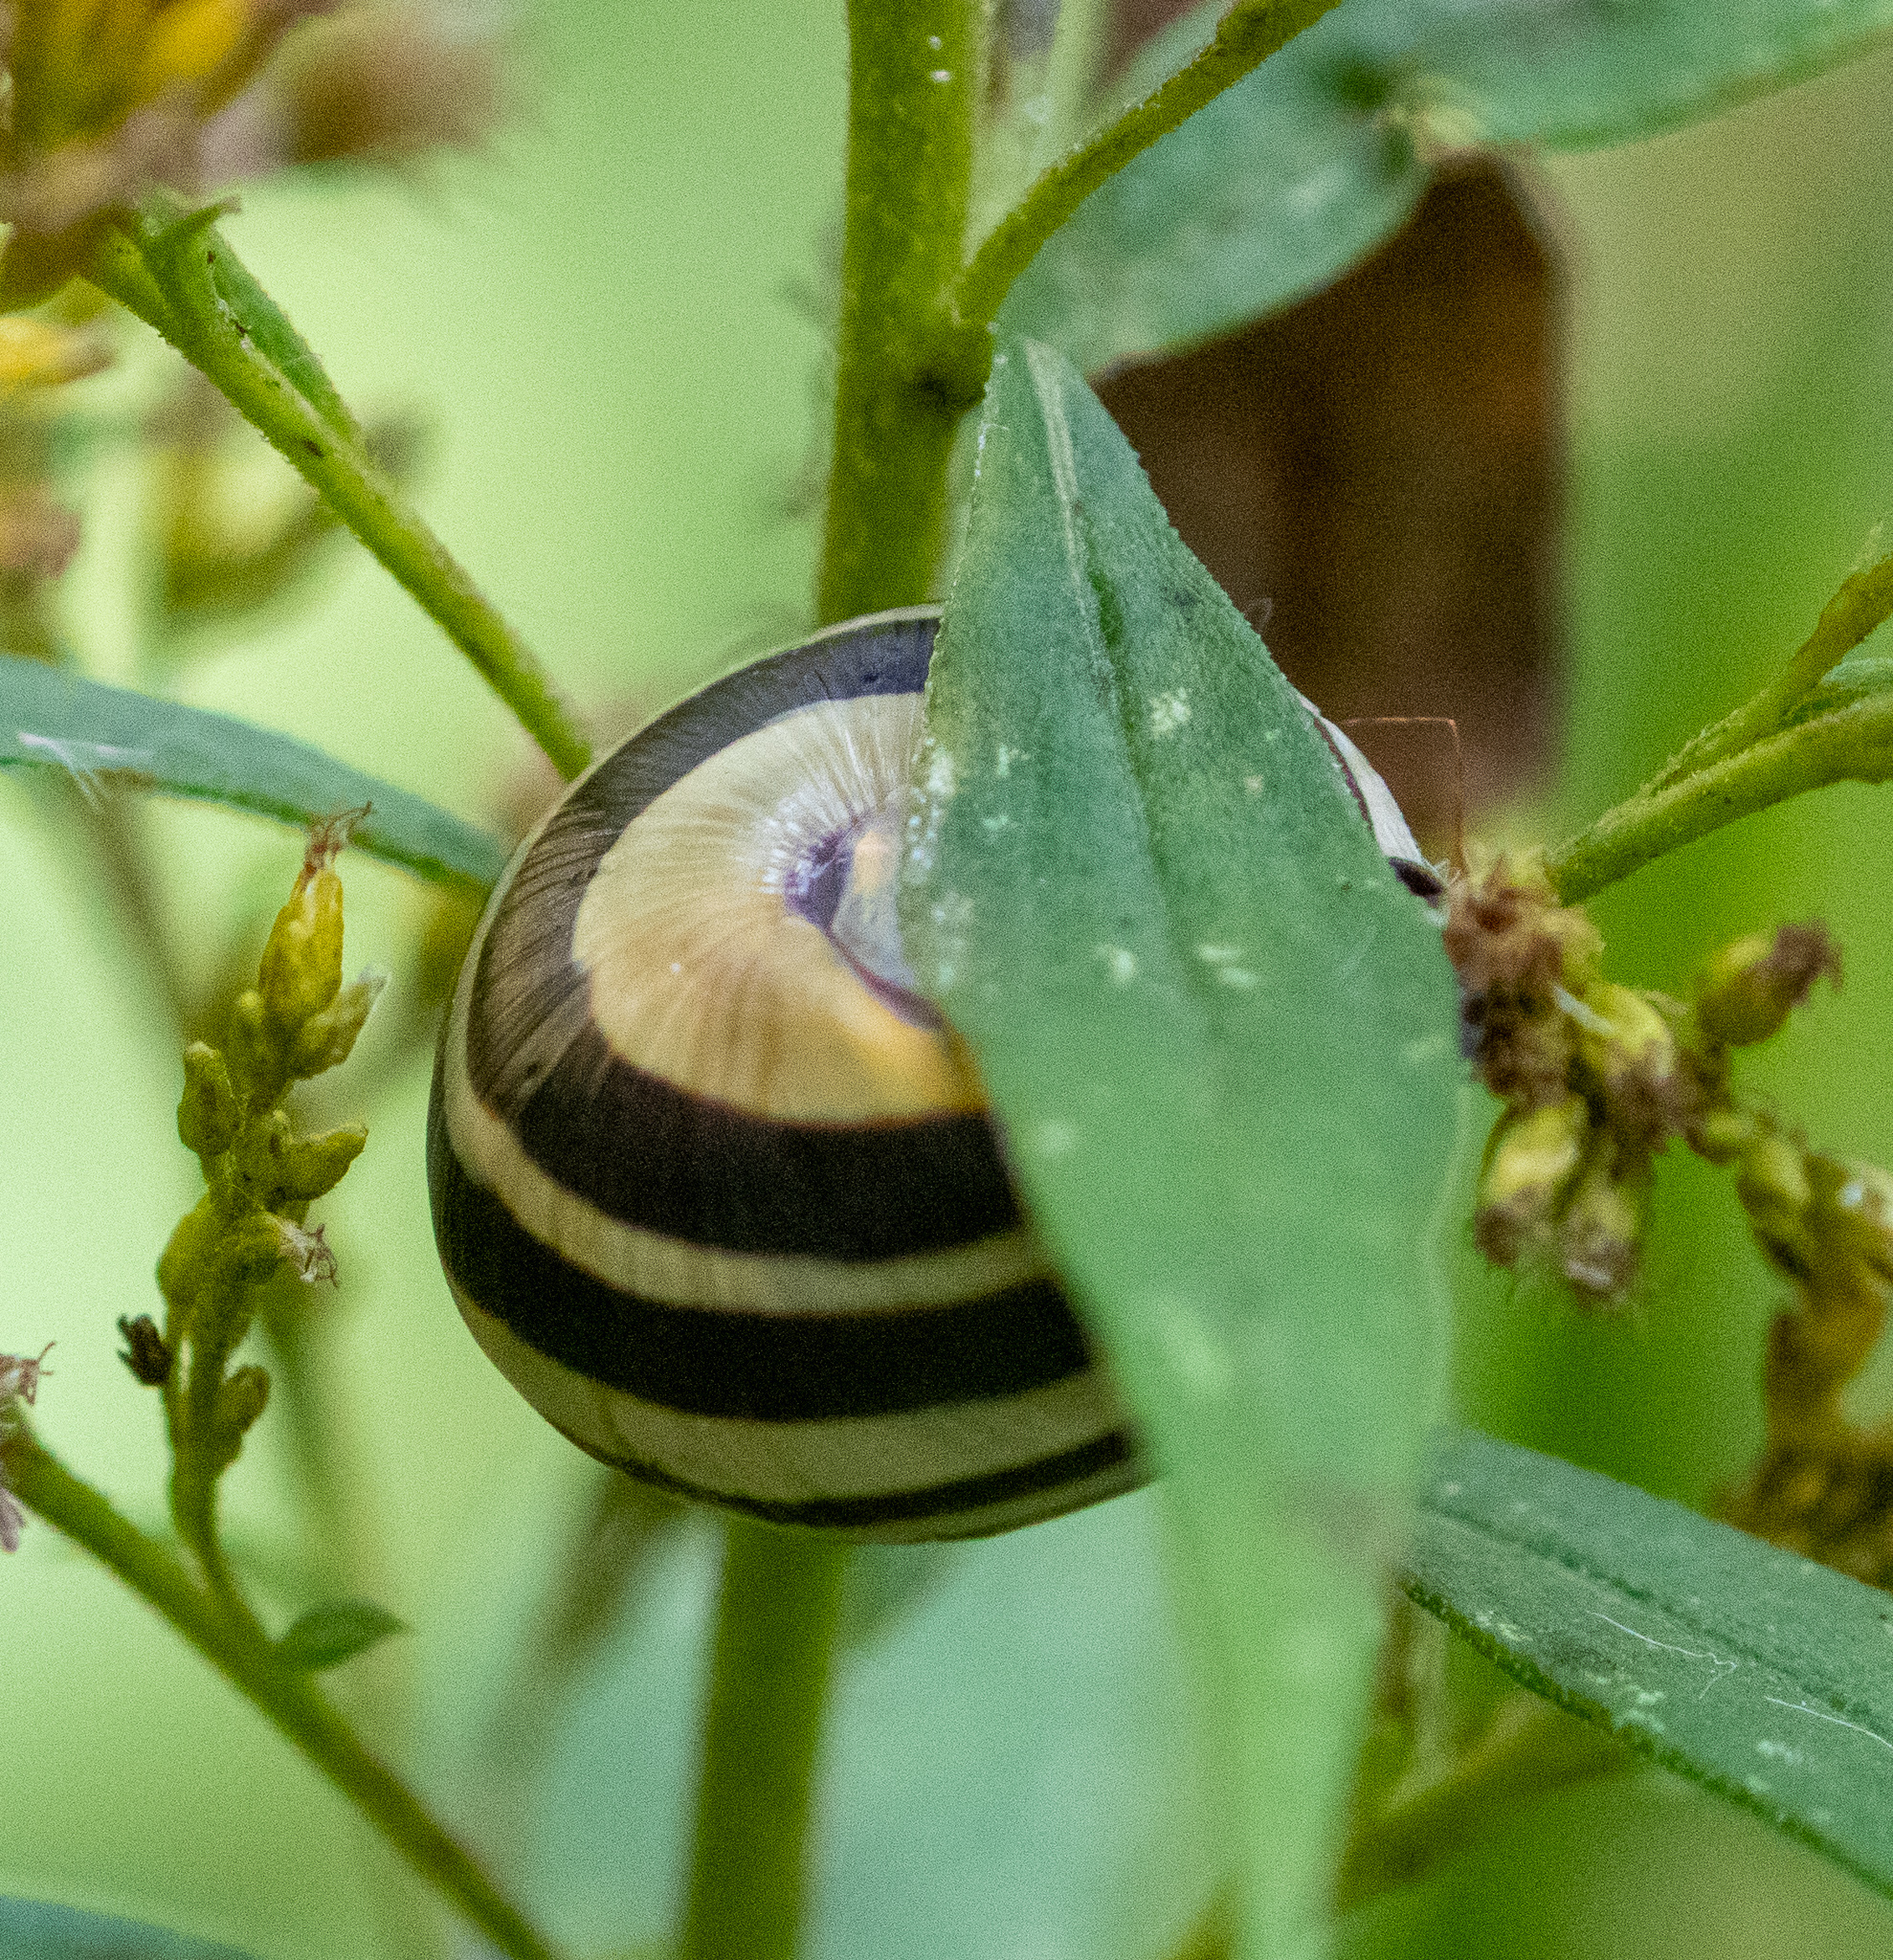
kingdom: Animalia
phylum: Mollusca
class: Gastropoda
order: Stylommatophora
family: Helicidae
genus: Cepaea
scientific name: Cepaea nemoralis
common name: Grovesnail
